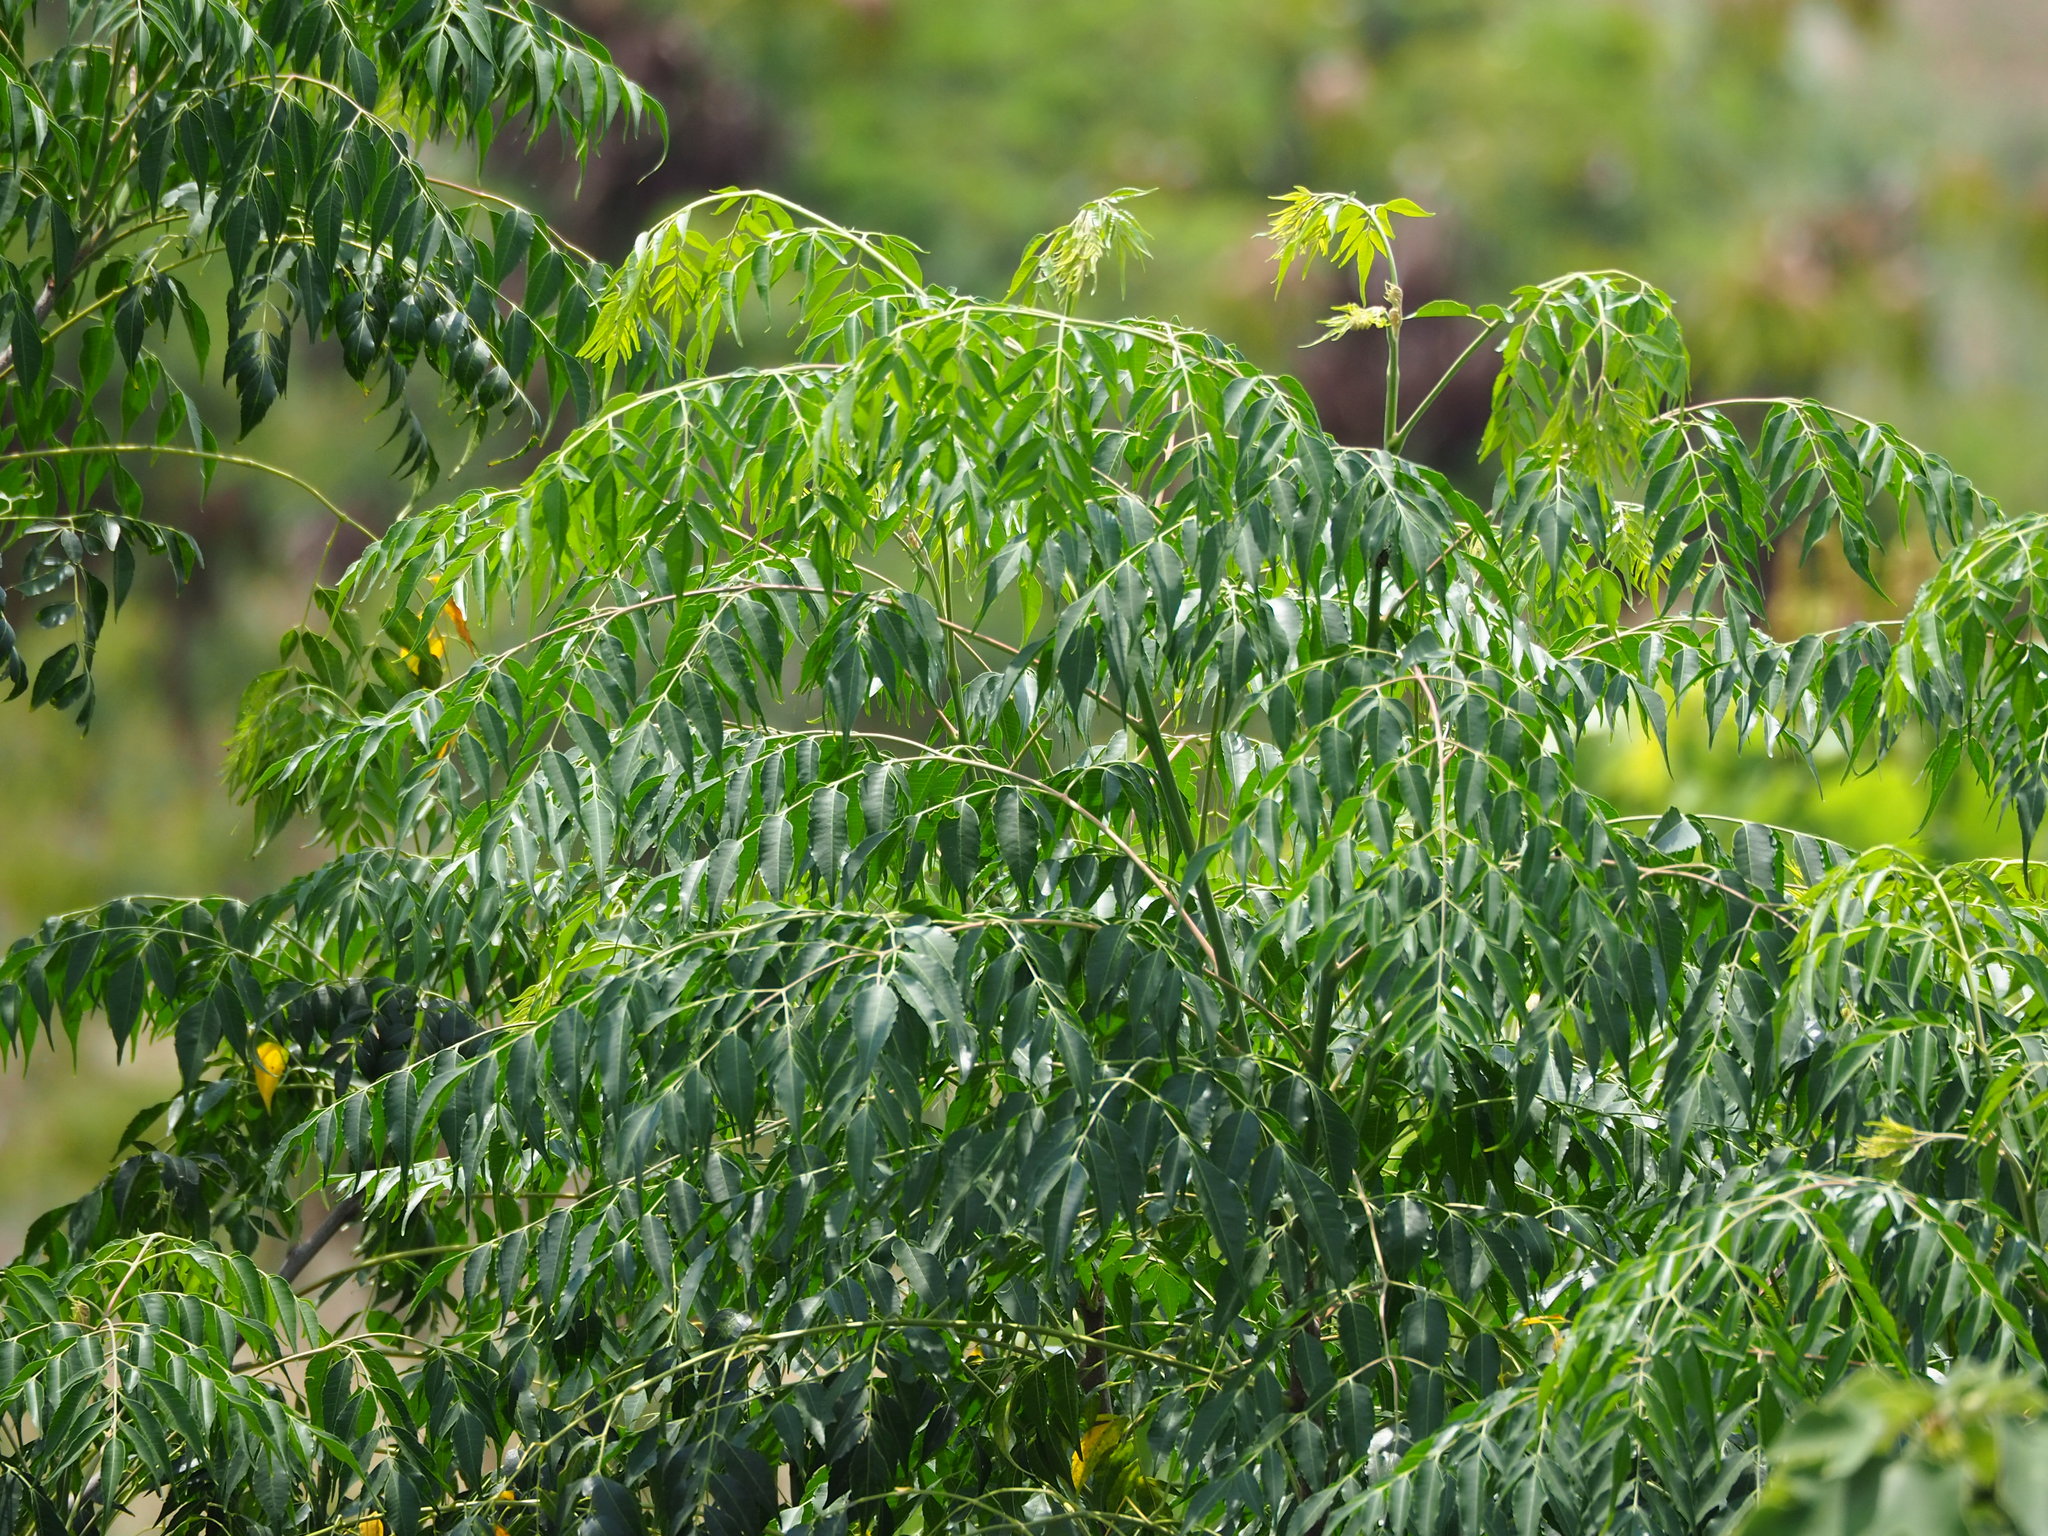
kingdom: Plantae
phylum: Tracheophyta
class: Magnoliopsida
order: Sapindales
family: Meliaceae
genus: Melia
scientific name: Melia azedarach
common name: Chinaberrytree
